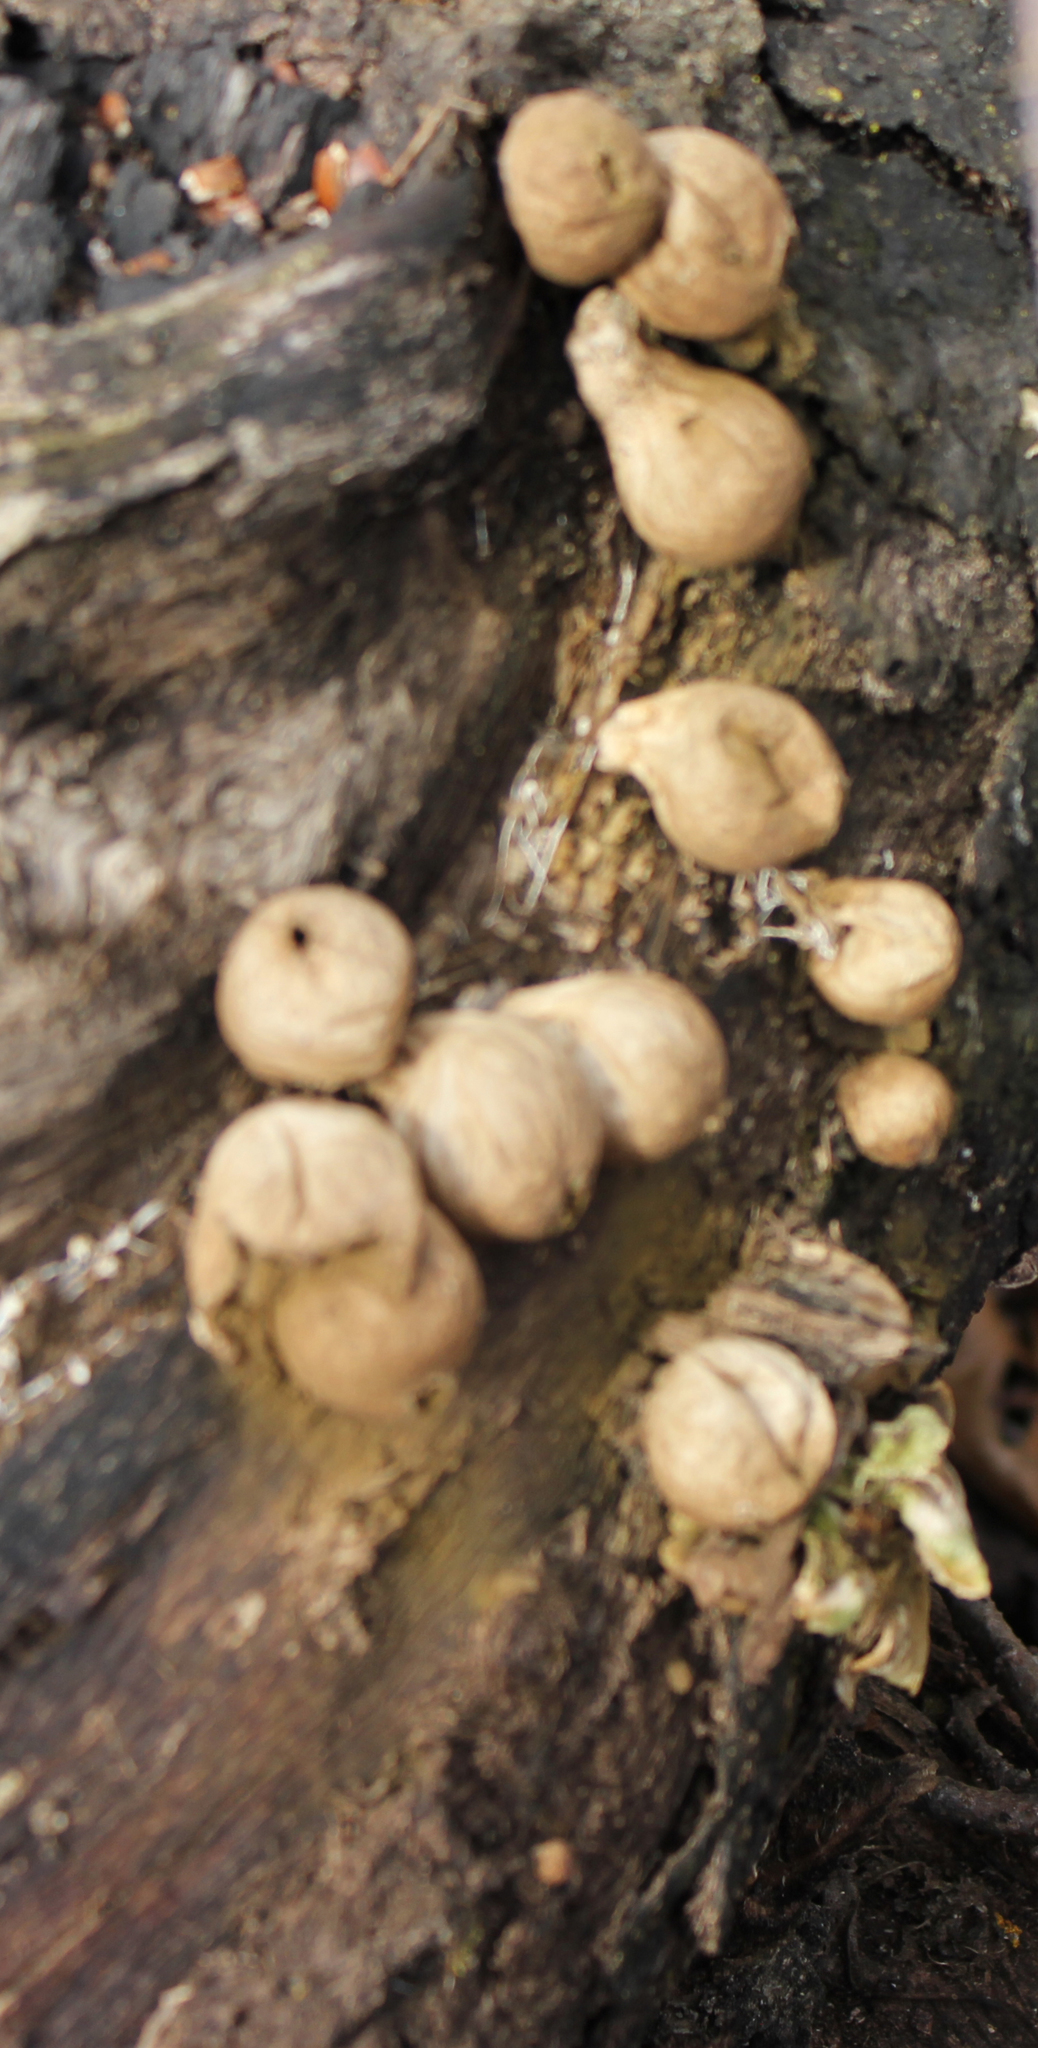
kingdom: Fungi
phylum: Basidiomycota
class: Agaricomycetes
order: Agaricales
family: Lycoperdaceae
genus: Apioperdon
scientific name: Apioperdon pyriforme
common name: Pear-shaped puffball
